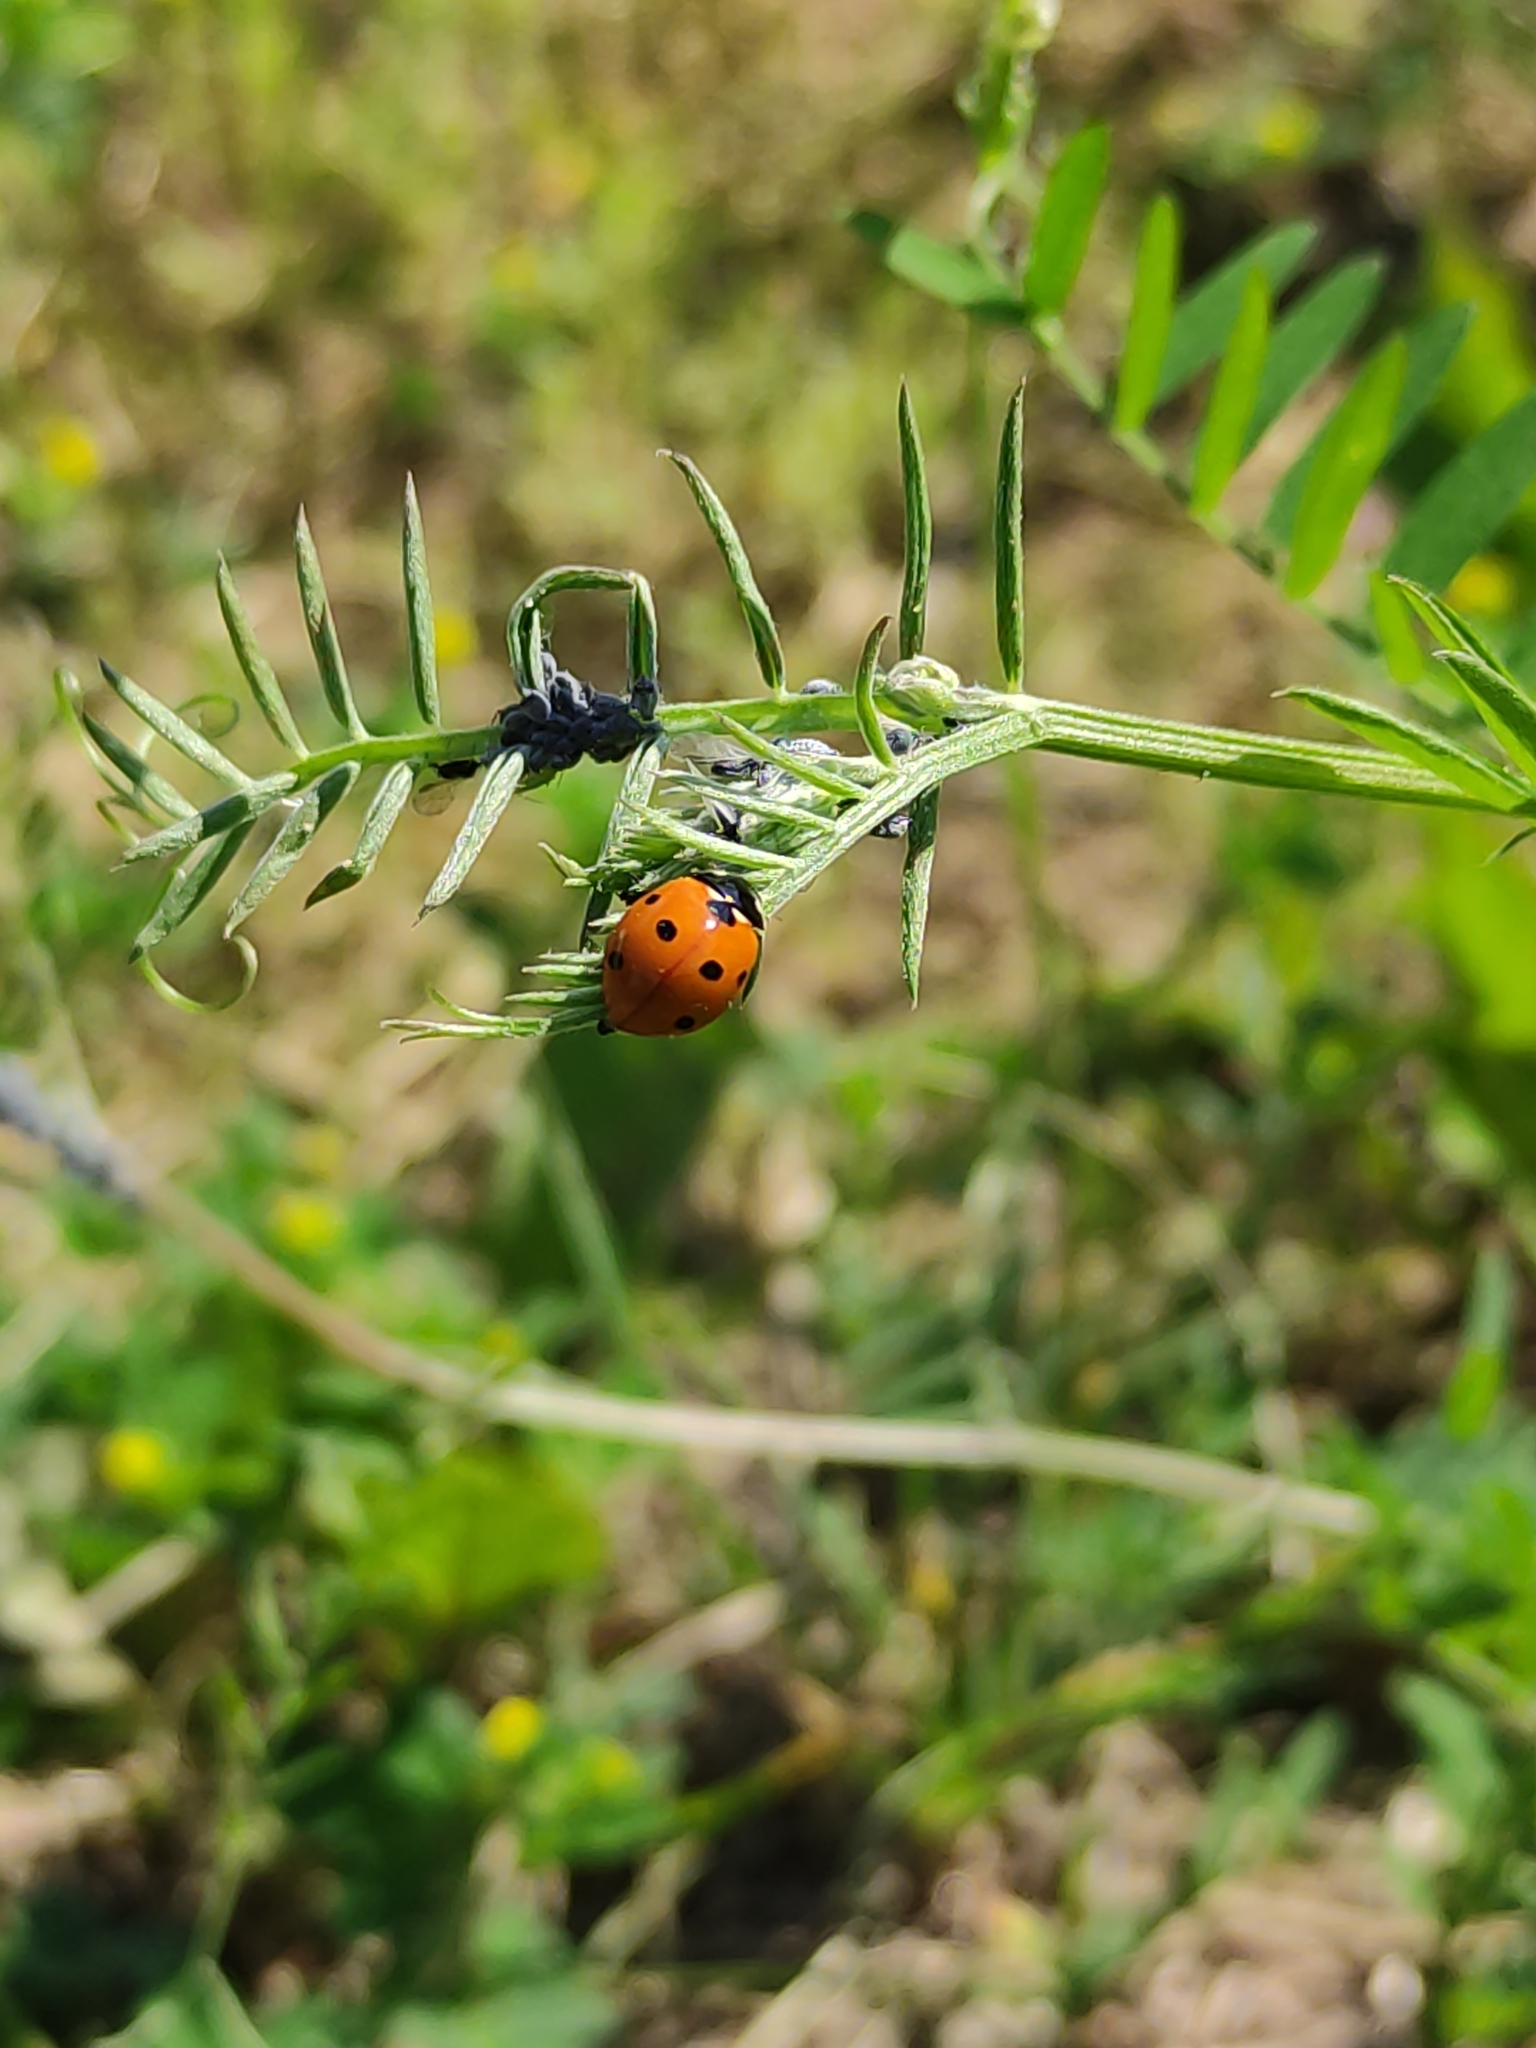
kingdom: Animalia
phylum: Arthropoda
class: Insecta
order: Coleoptera
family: Coccinellidae
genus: Coccinella
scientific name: Coccinella septempunctata
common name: Sevenspotted lady beetle
